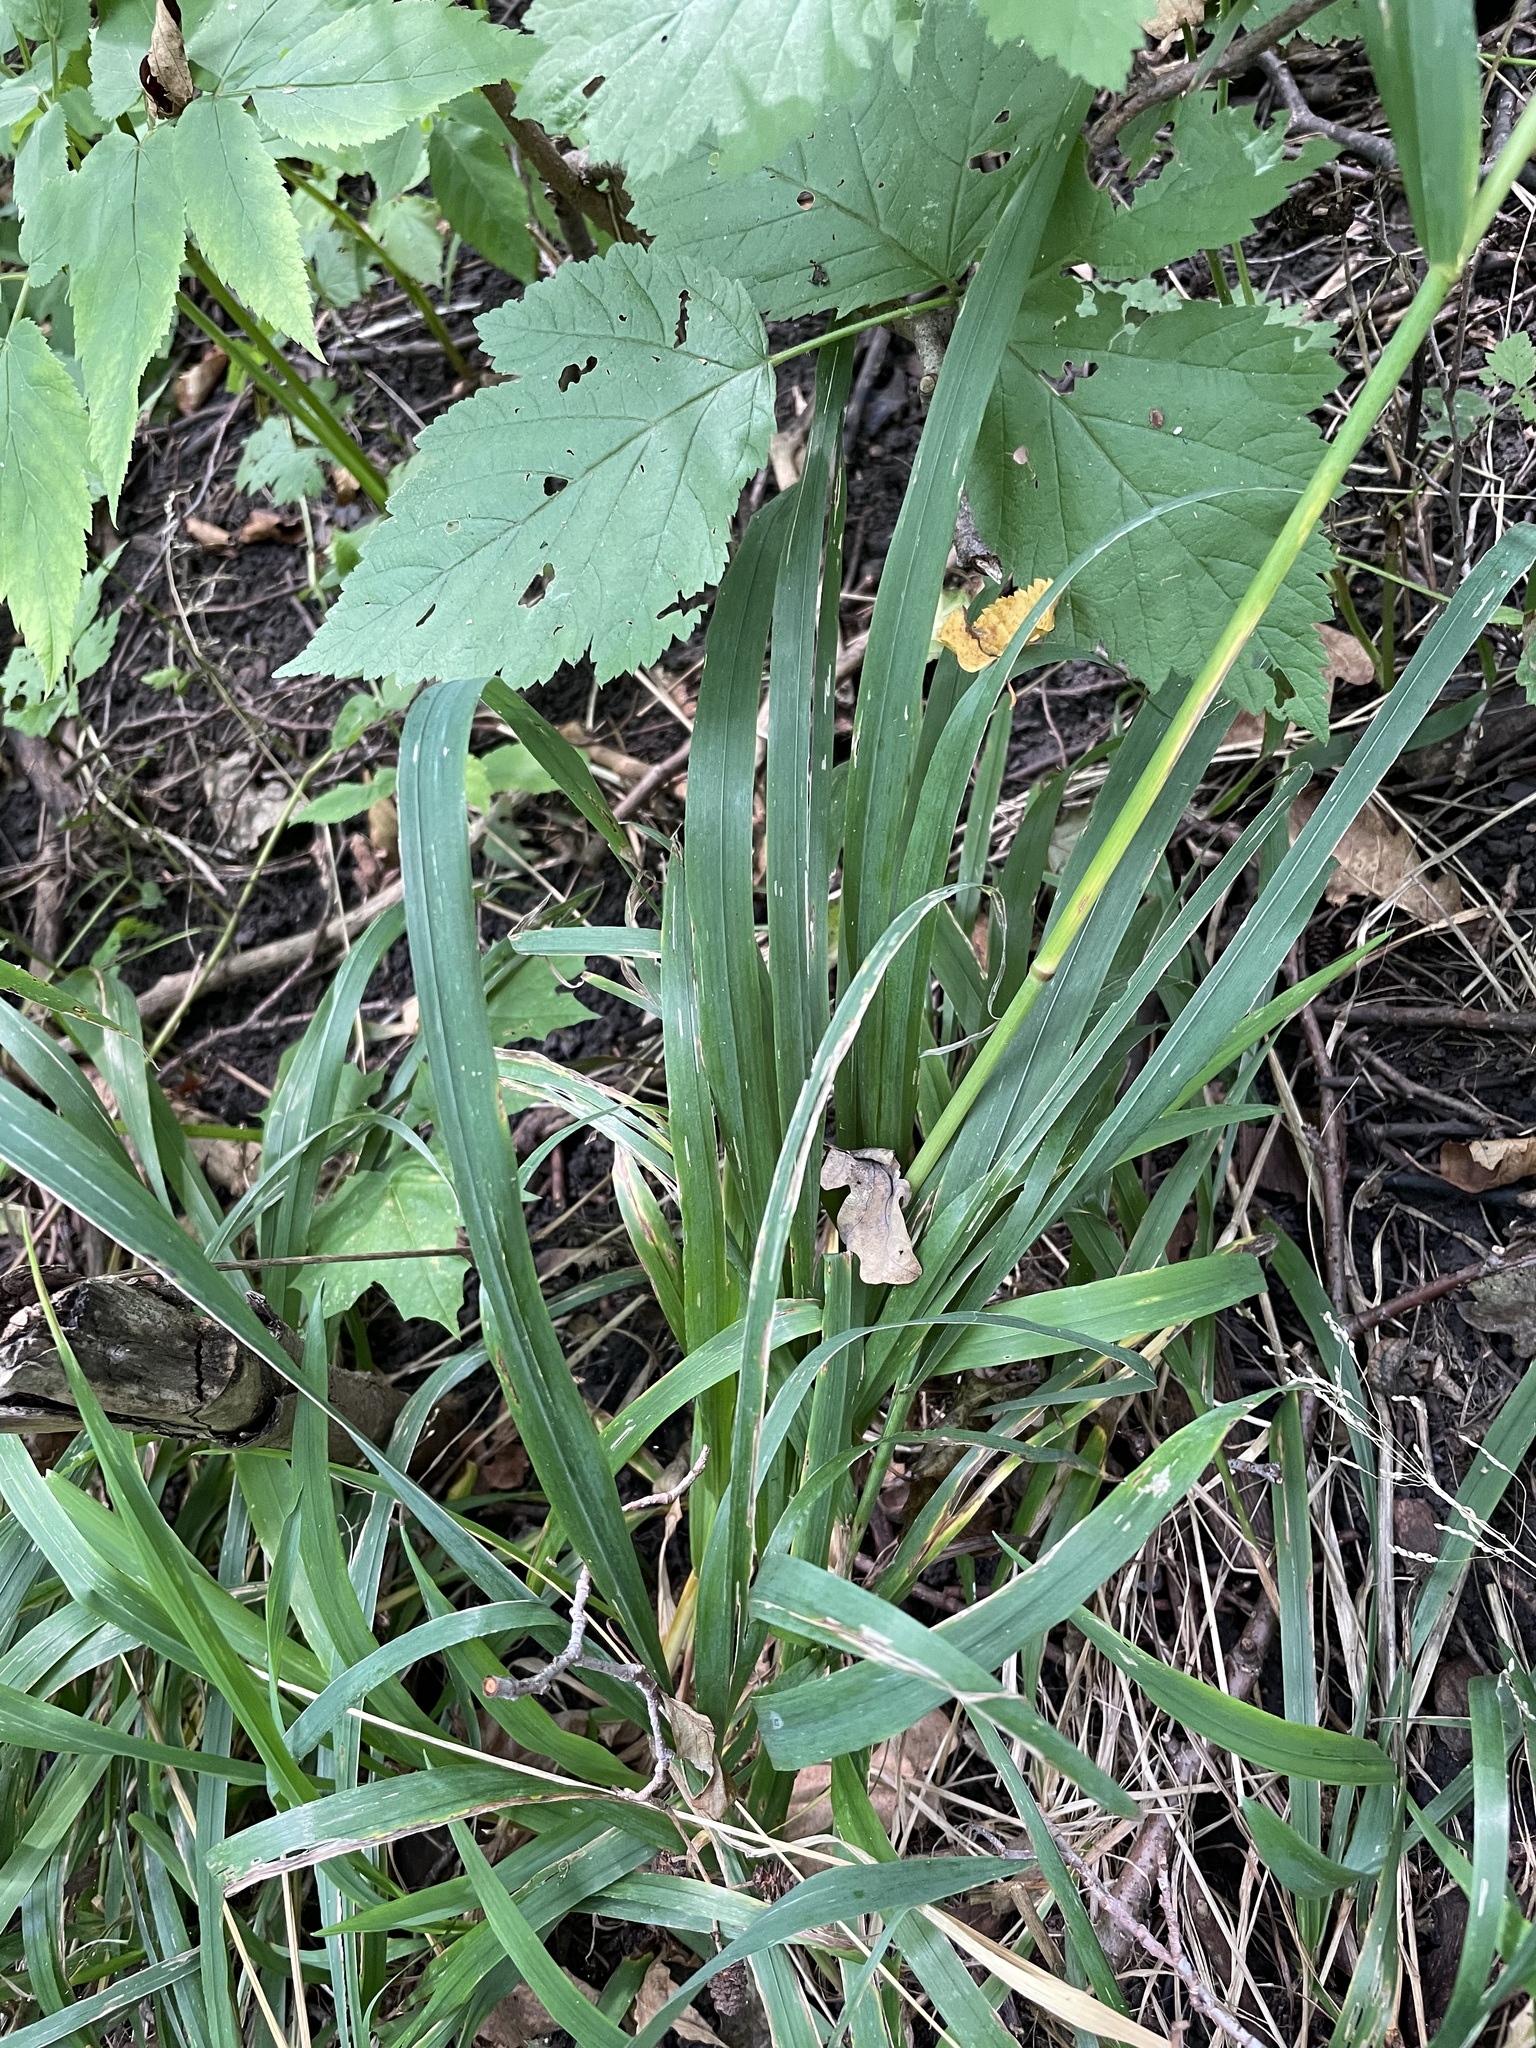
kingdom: Plantae
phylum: Tracheophyta
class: Liliopsida
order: Poales
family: Poaceae
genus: Milium
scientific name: Milium effusum
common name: Wood millet
